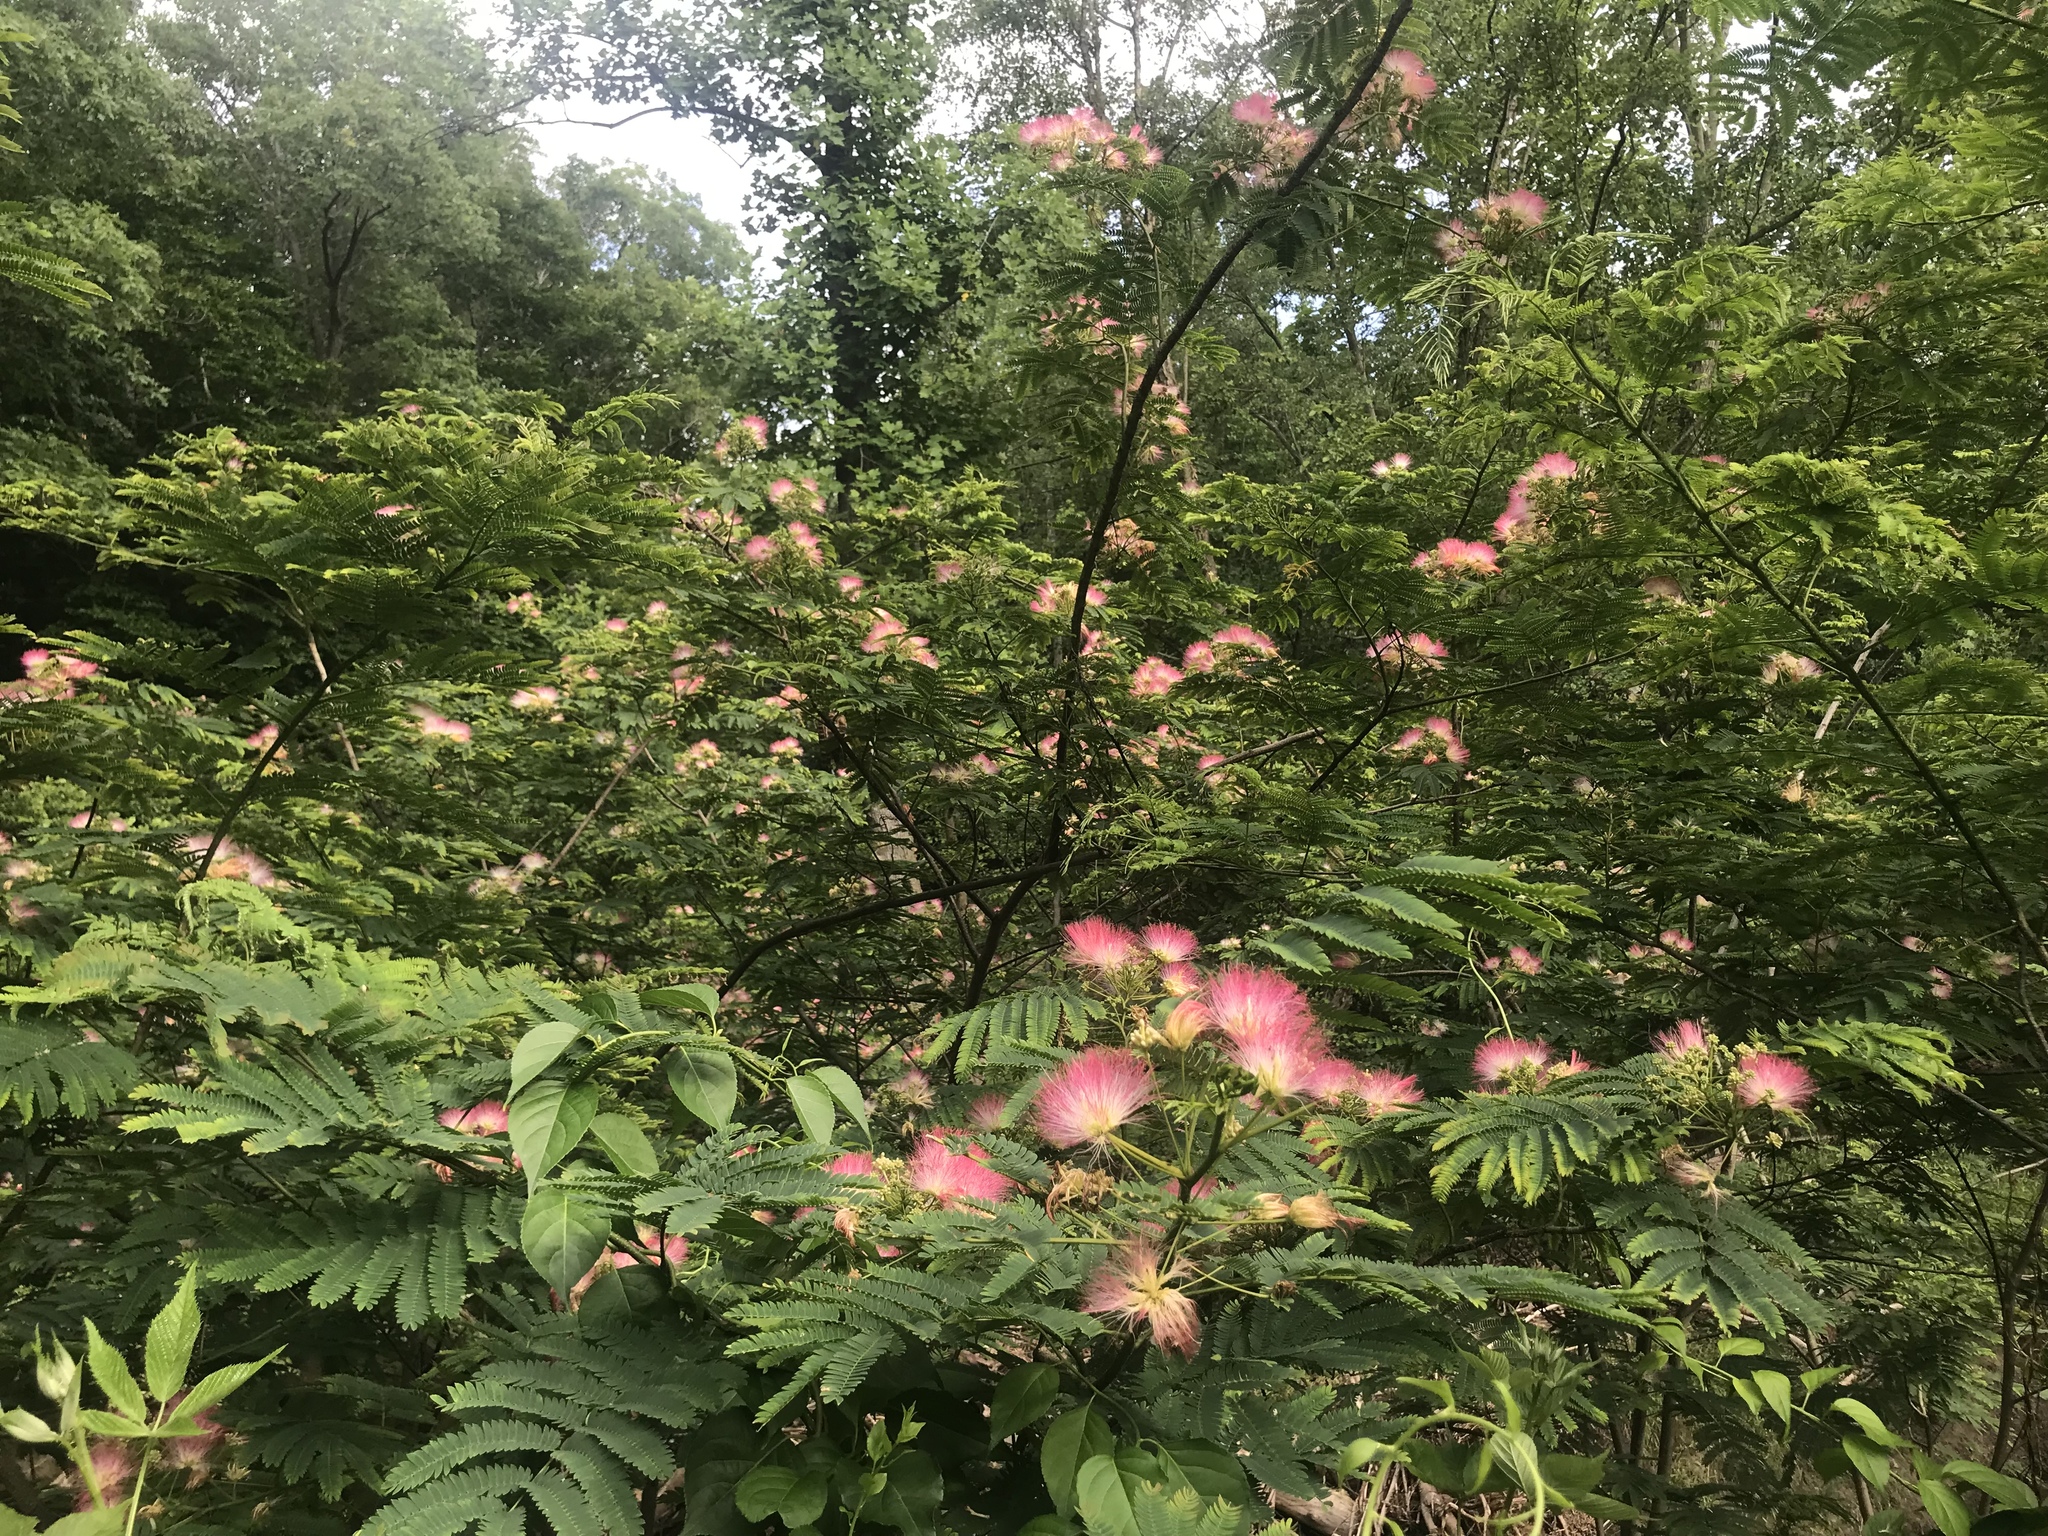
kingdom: Plantae
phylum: Tracheophyta
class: Magnoliopsida
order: Fabales
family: Fabaceae
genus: Albizia
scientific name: Albizia julibrissin
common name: Silktree
